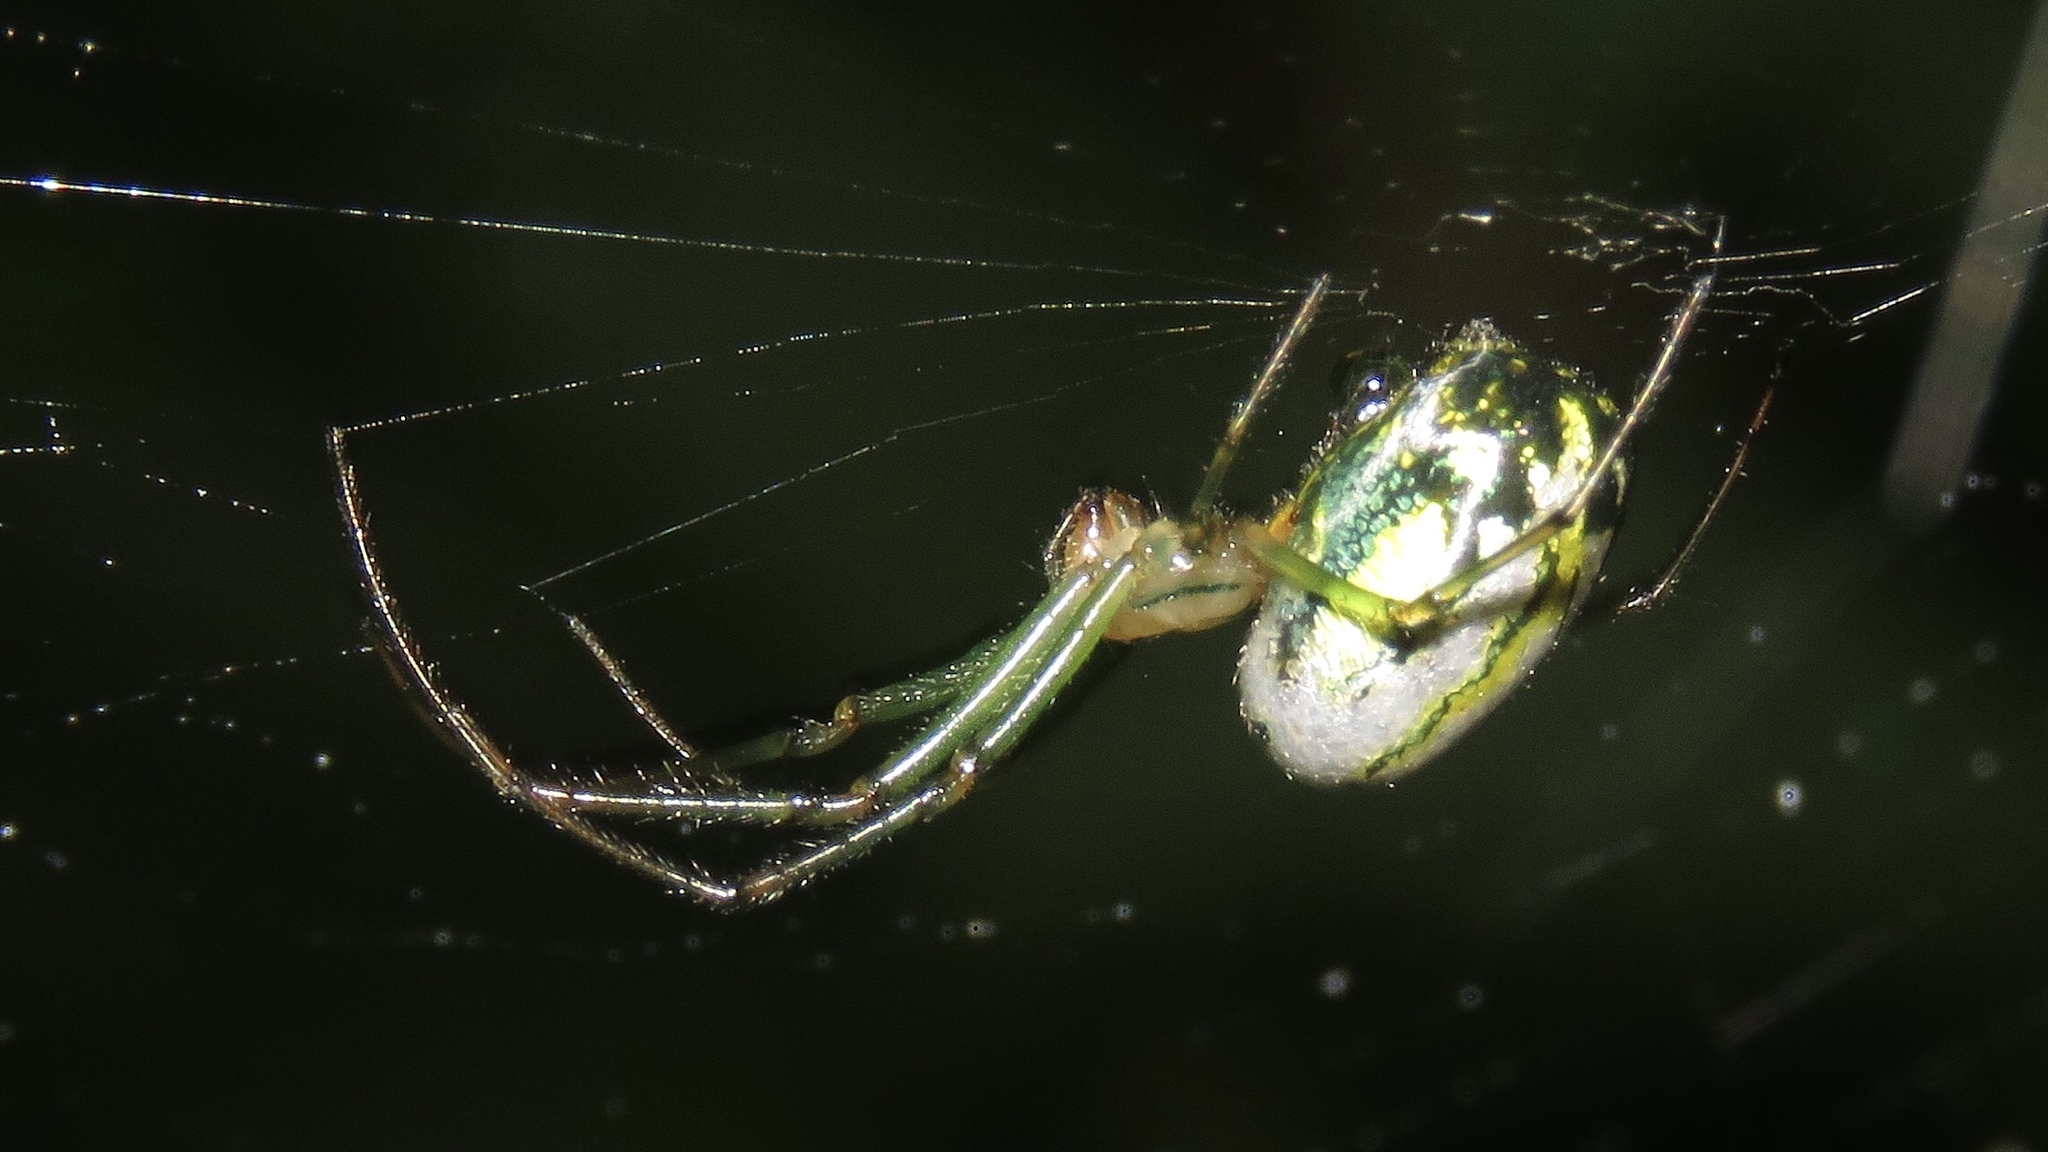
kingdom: Animalia
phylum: Arthropoda
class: Arachnida
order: Araneae
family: Tetragnathidae
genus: Leucauge
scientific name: Leucauge venusta
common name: Longjawed orb weavers
